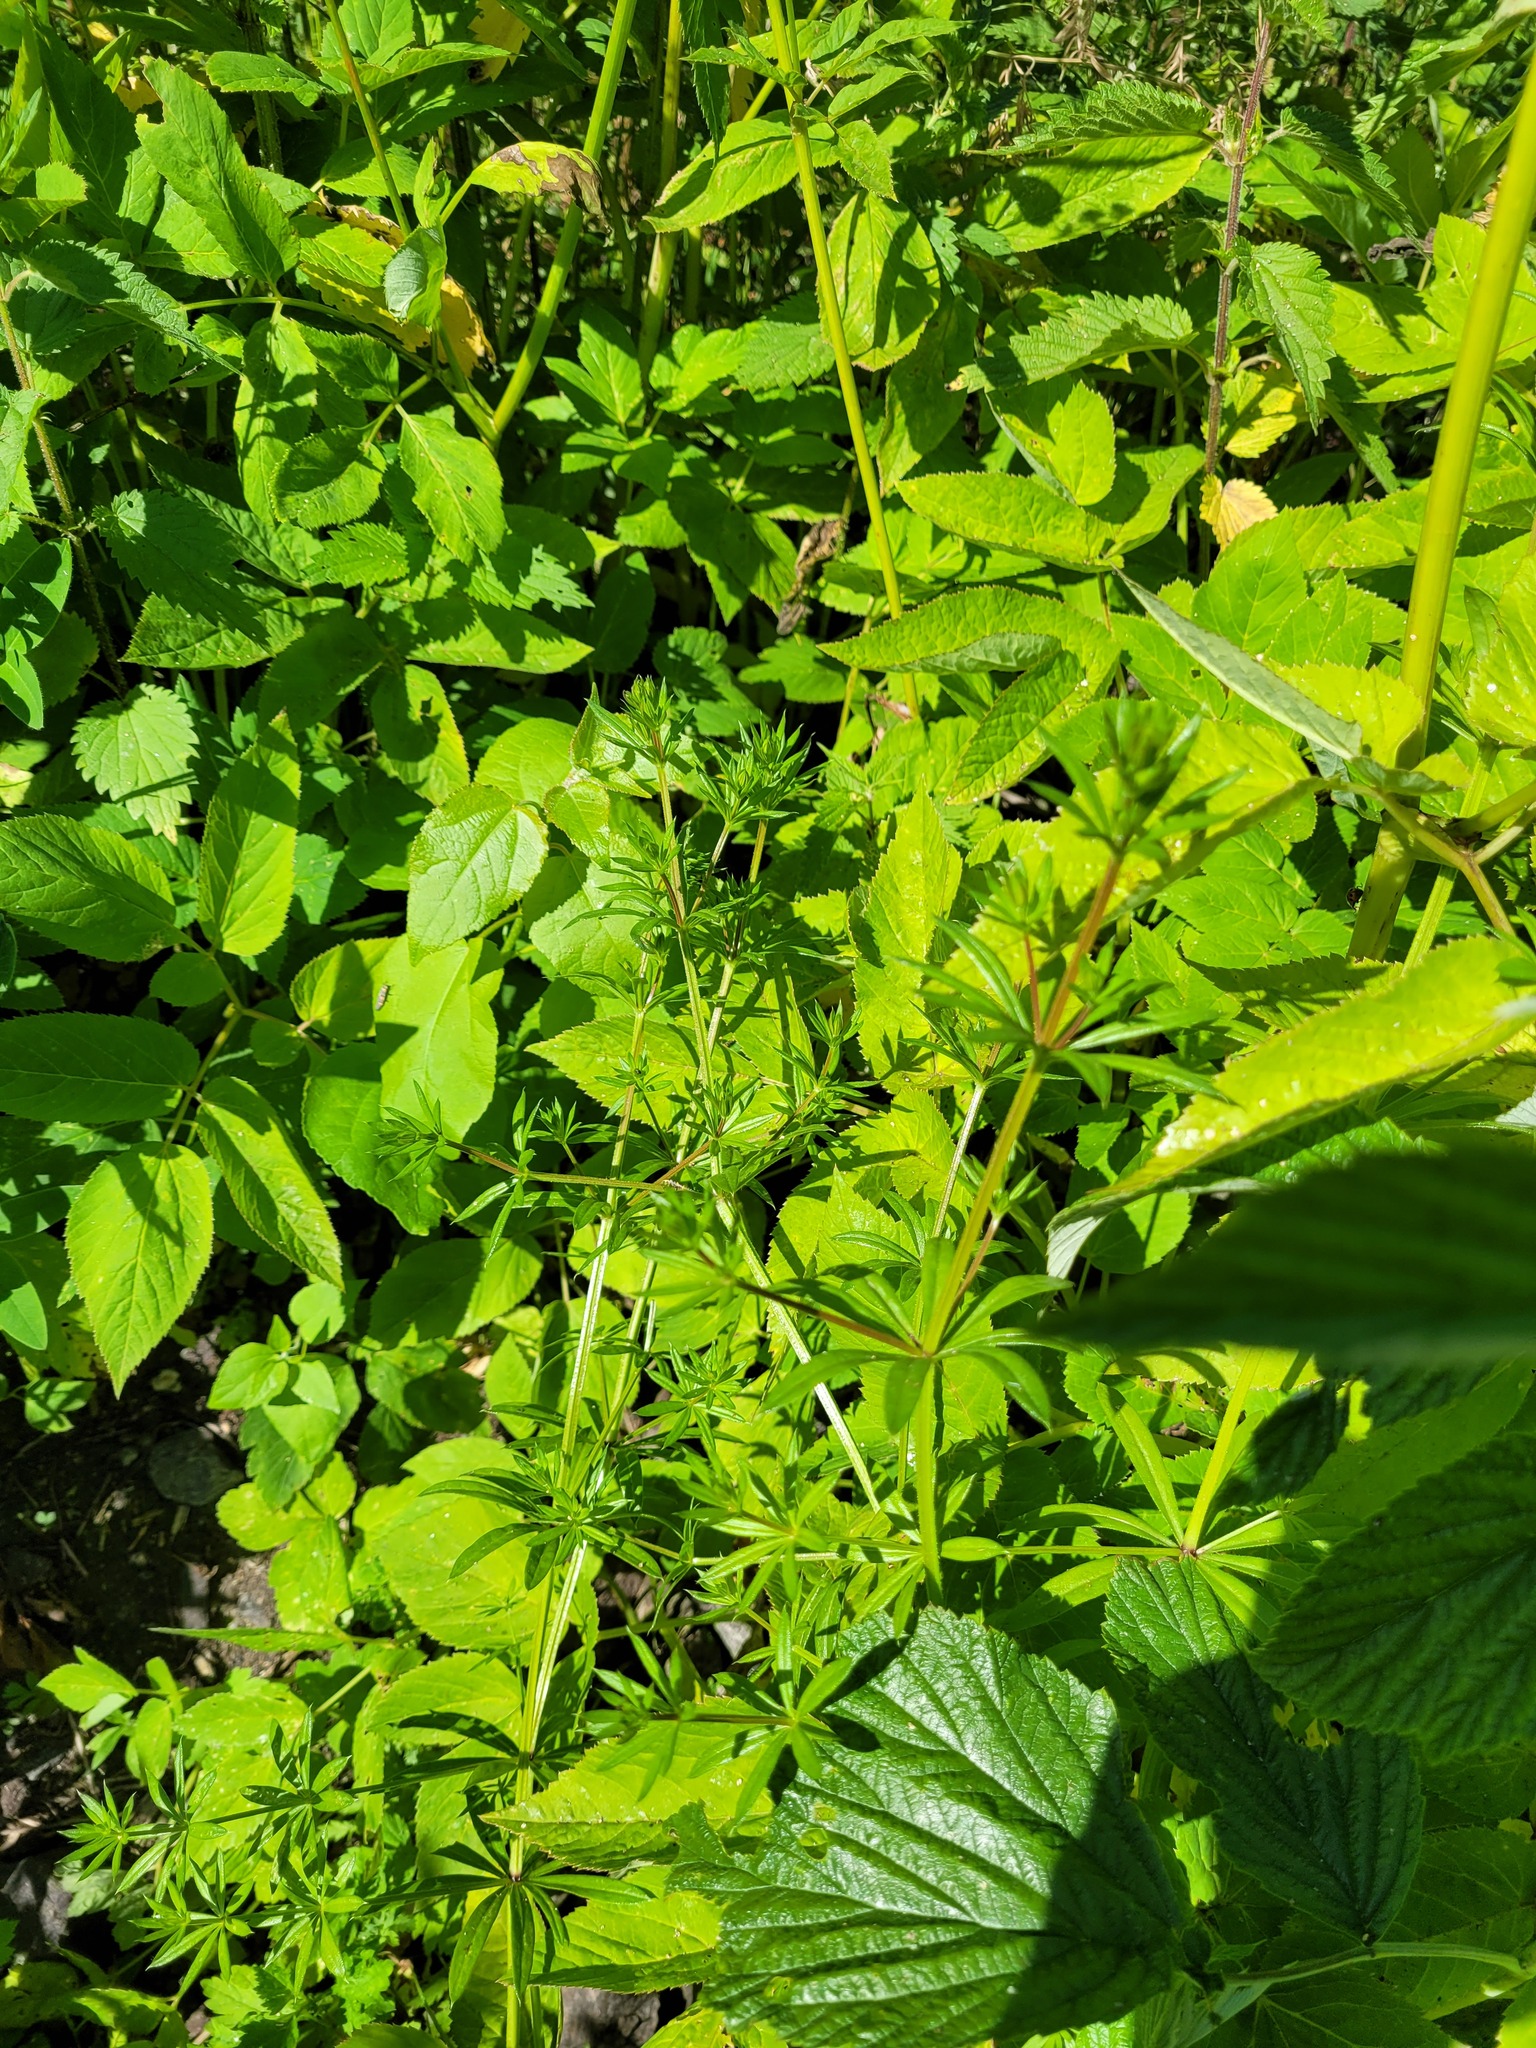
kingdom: Plantae
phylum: Tracheophyta
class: Magnoliopsida
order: Gentianales
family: Rubiaceae
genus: Galium
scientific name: Galium rivale
